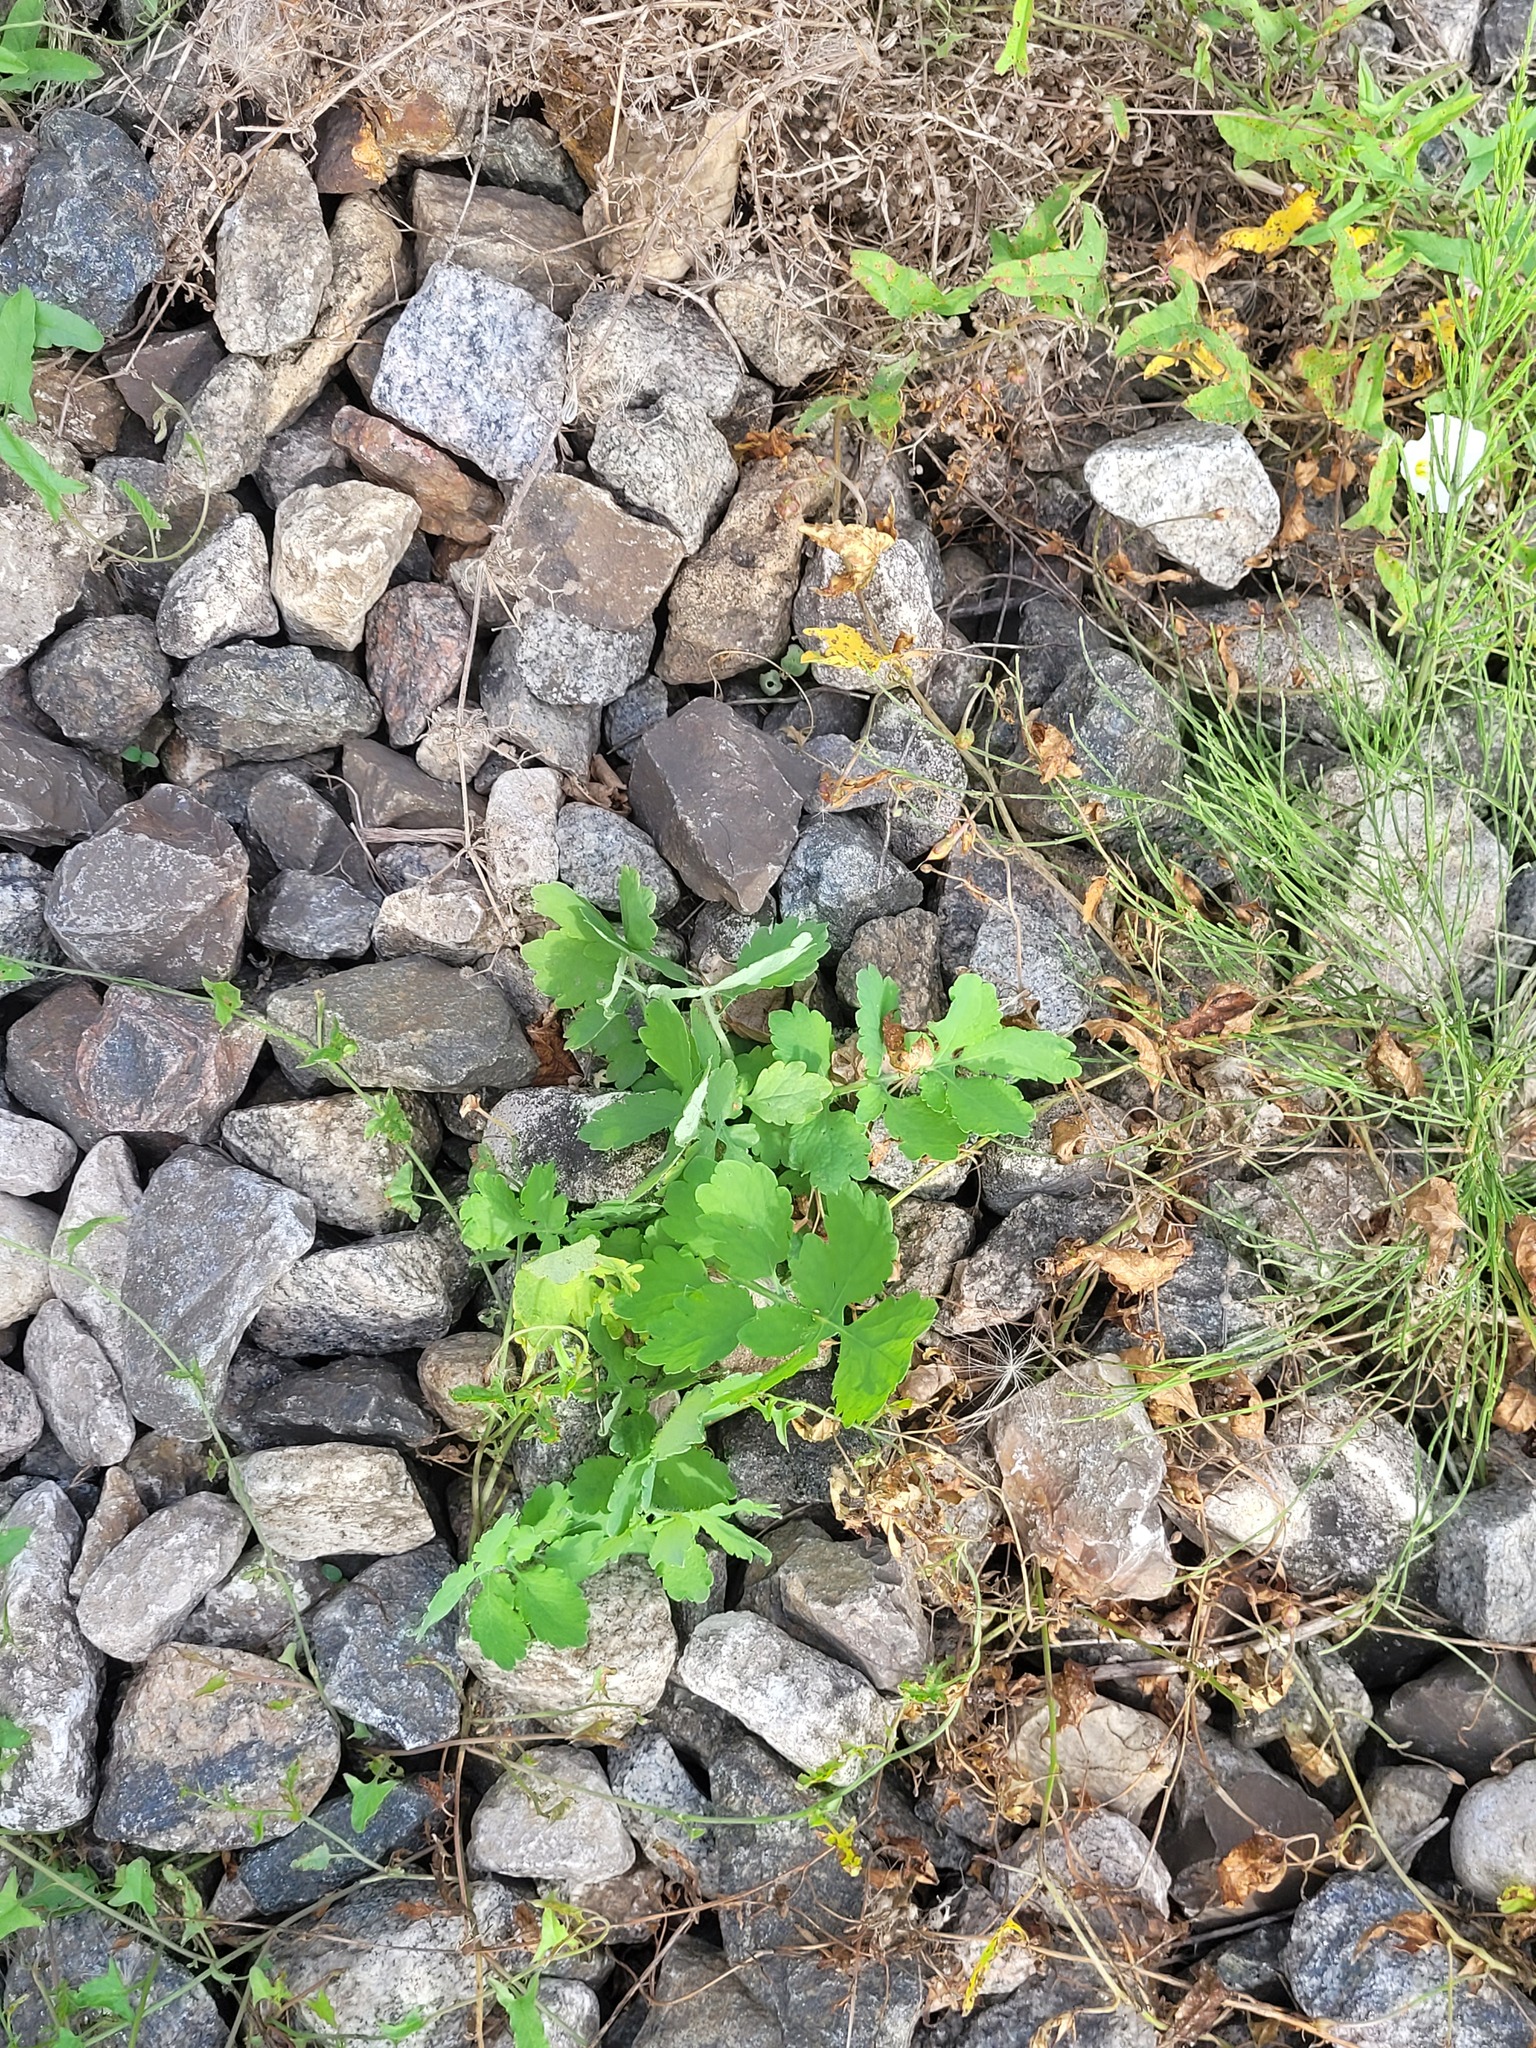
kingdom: Plantae
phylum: Tracheophyta
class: Magnoliopsida
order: Ranunculales
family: Papaveraceae
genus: Chelidonium
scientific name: Chelidonium majus
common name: Greater celandine
